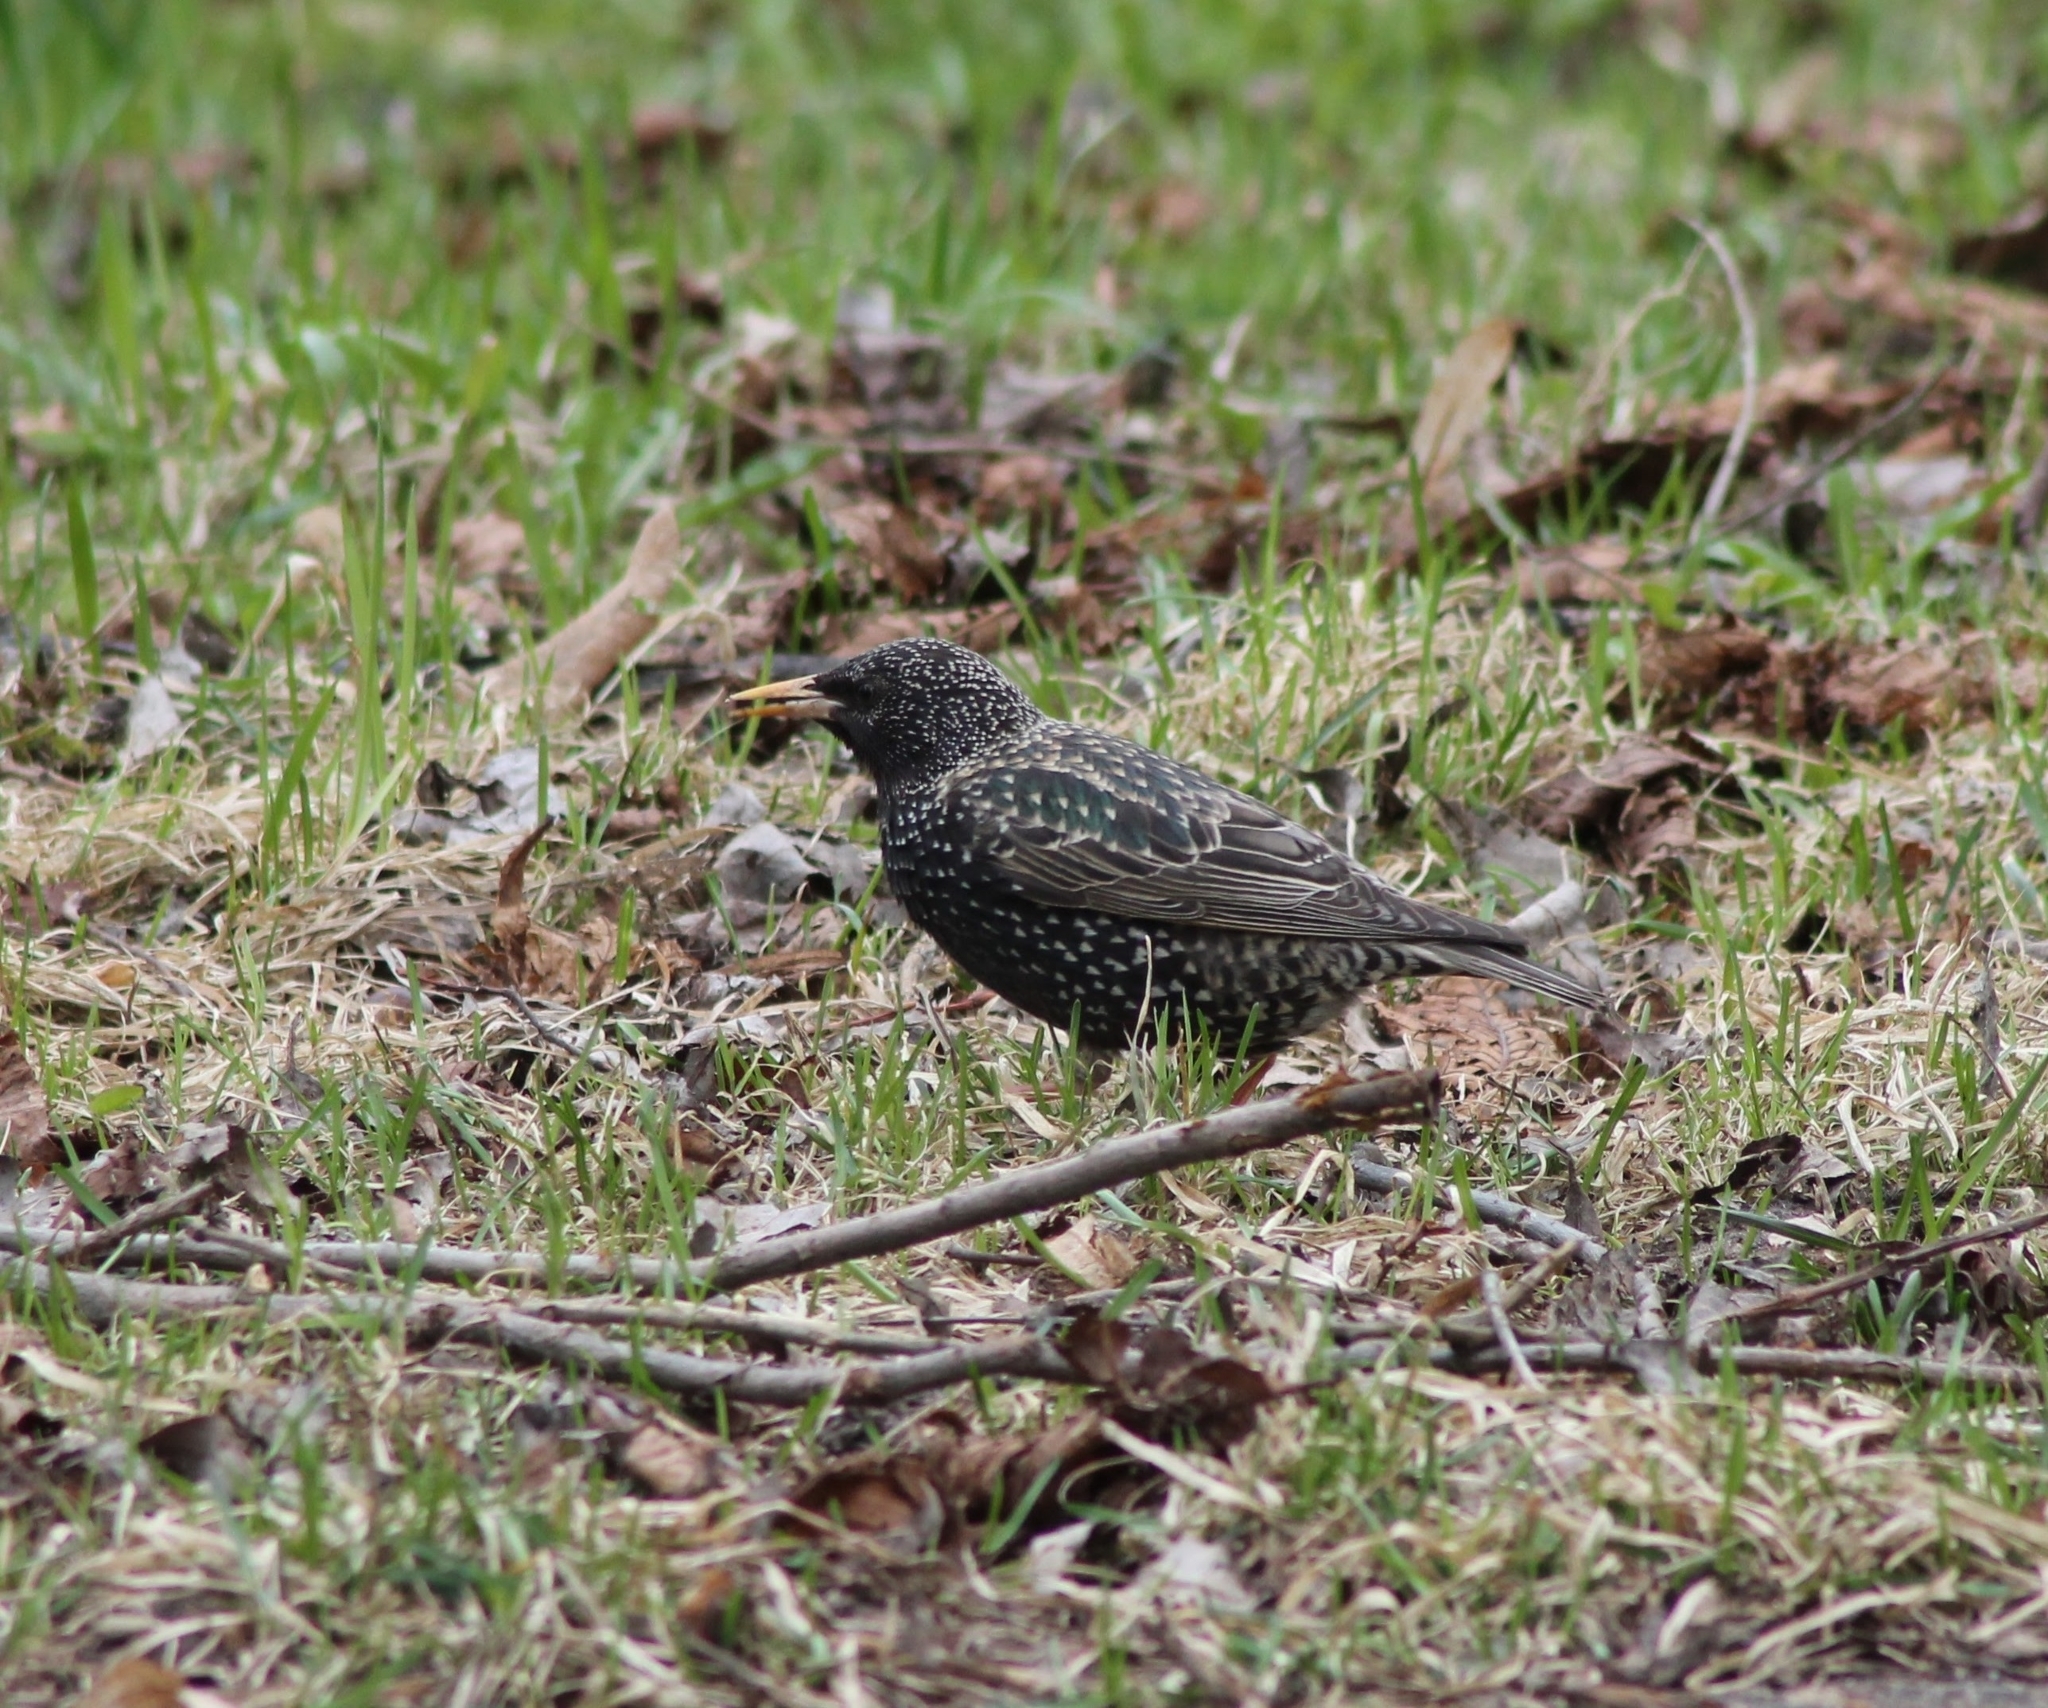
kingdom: Animalia
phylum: Chordata
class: Aves
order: Passeriformes
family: Sturnidae
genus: Sturnus
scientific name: Sturnus vulgaris
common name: Common starling
